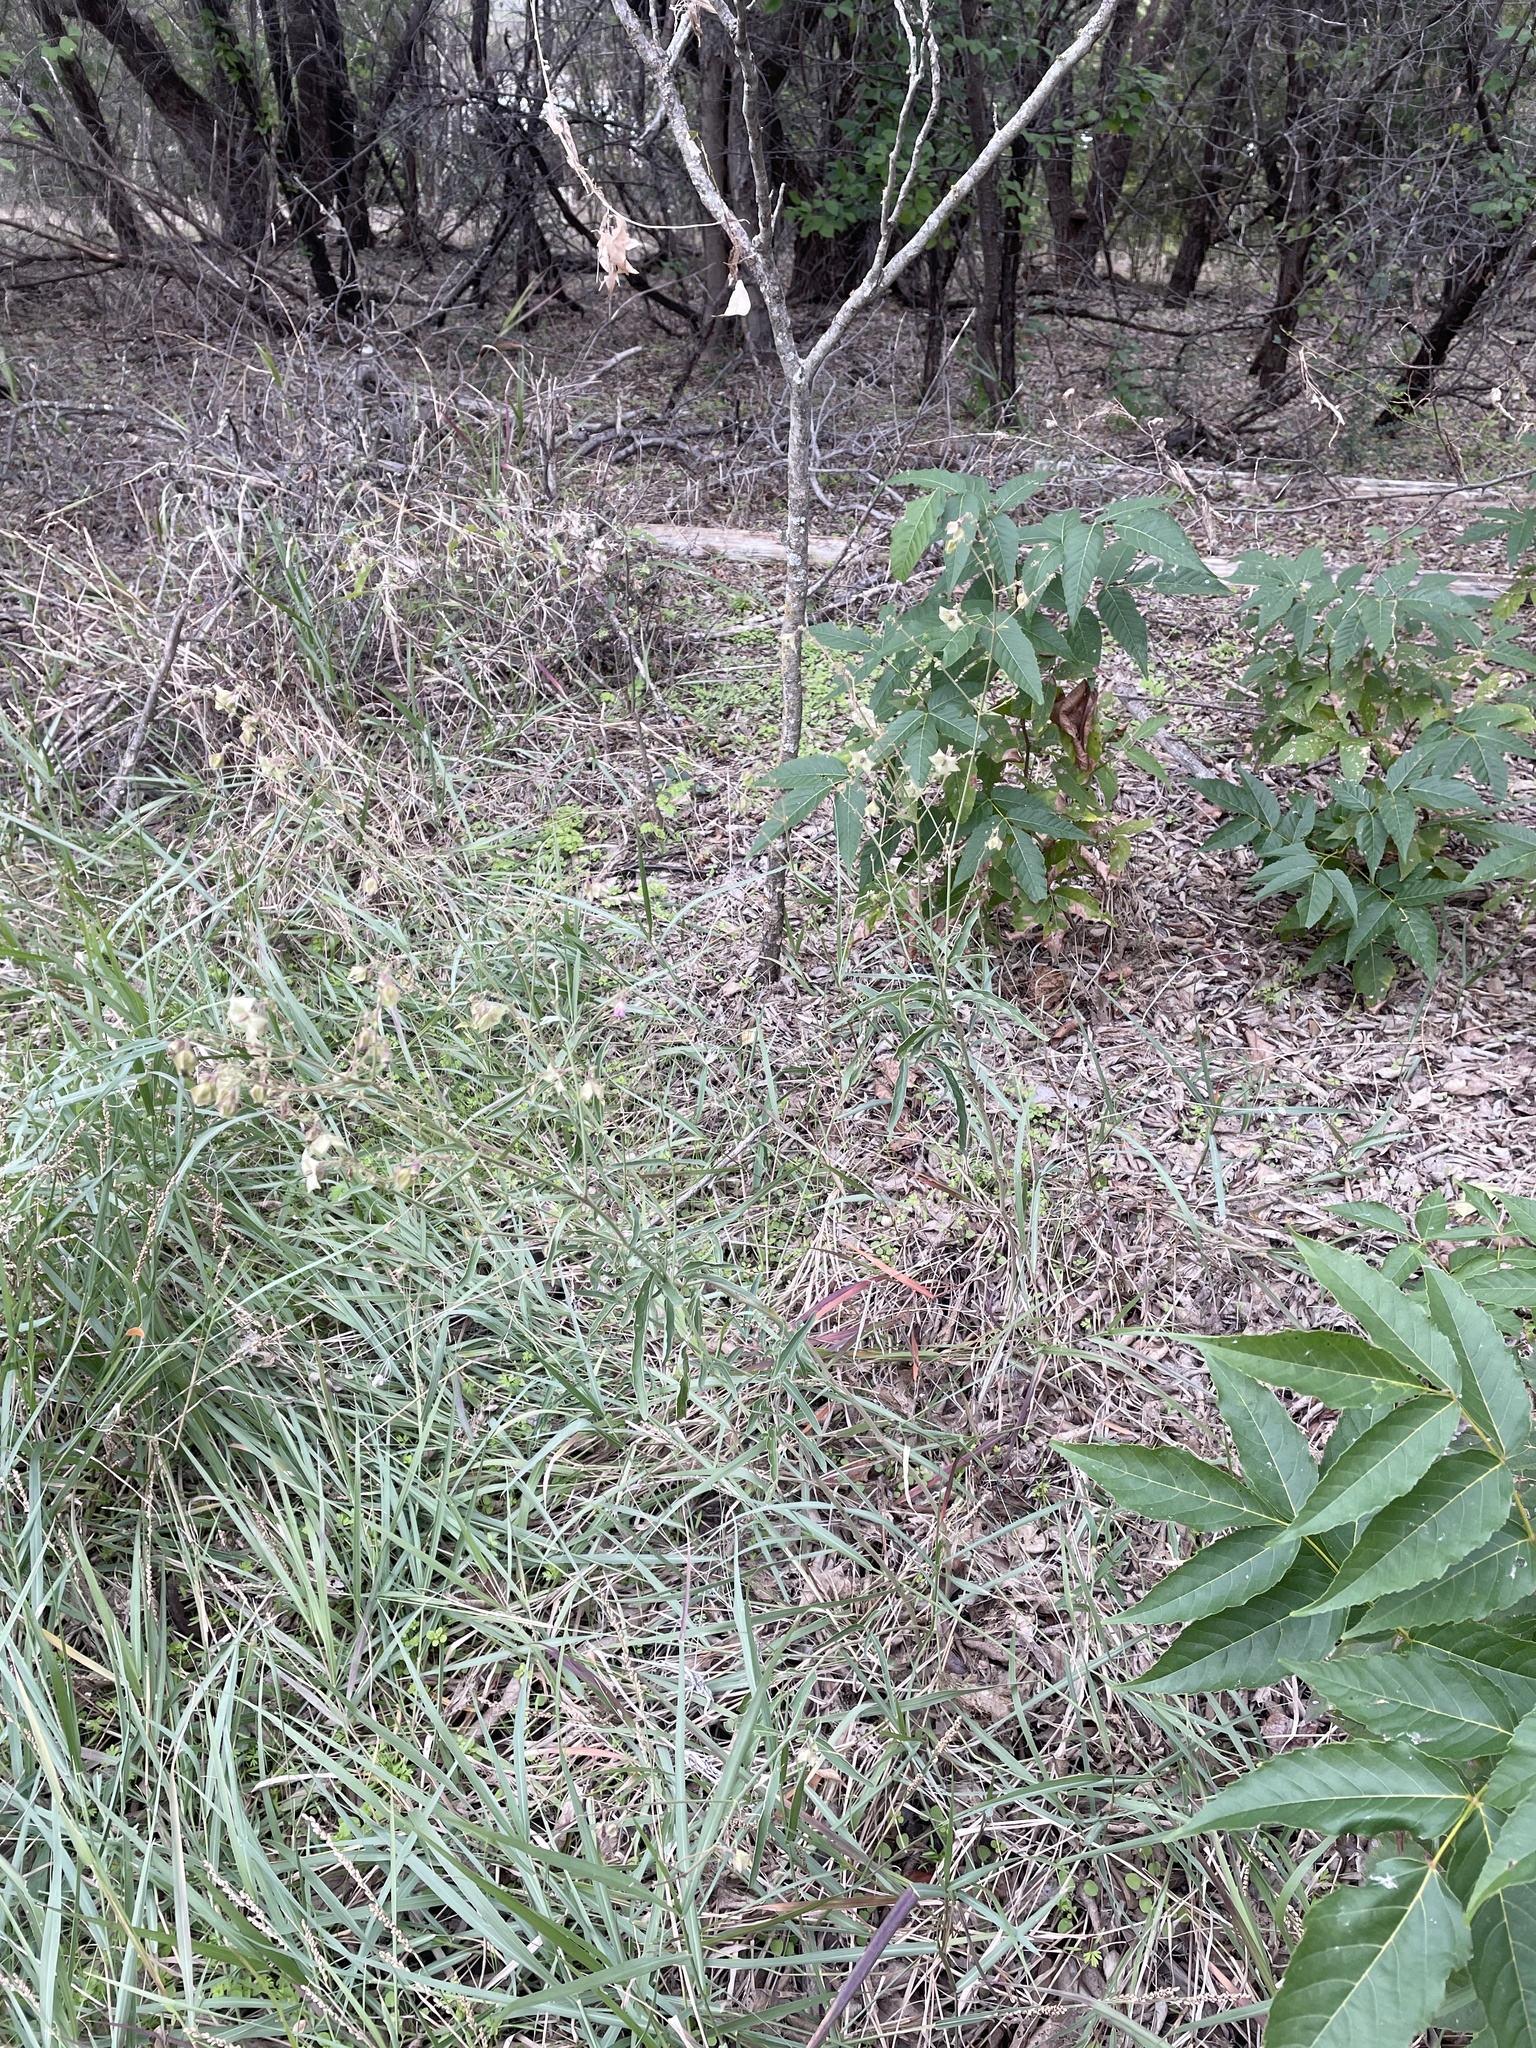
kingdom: Plantae
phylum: Tracheophyta
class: Magnoliopsida
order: Caryophyllales
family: Nyctaginaceae
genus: Mirabilis
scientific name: Mirabilis albida
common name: Hairy four-o'clock
